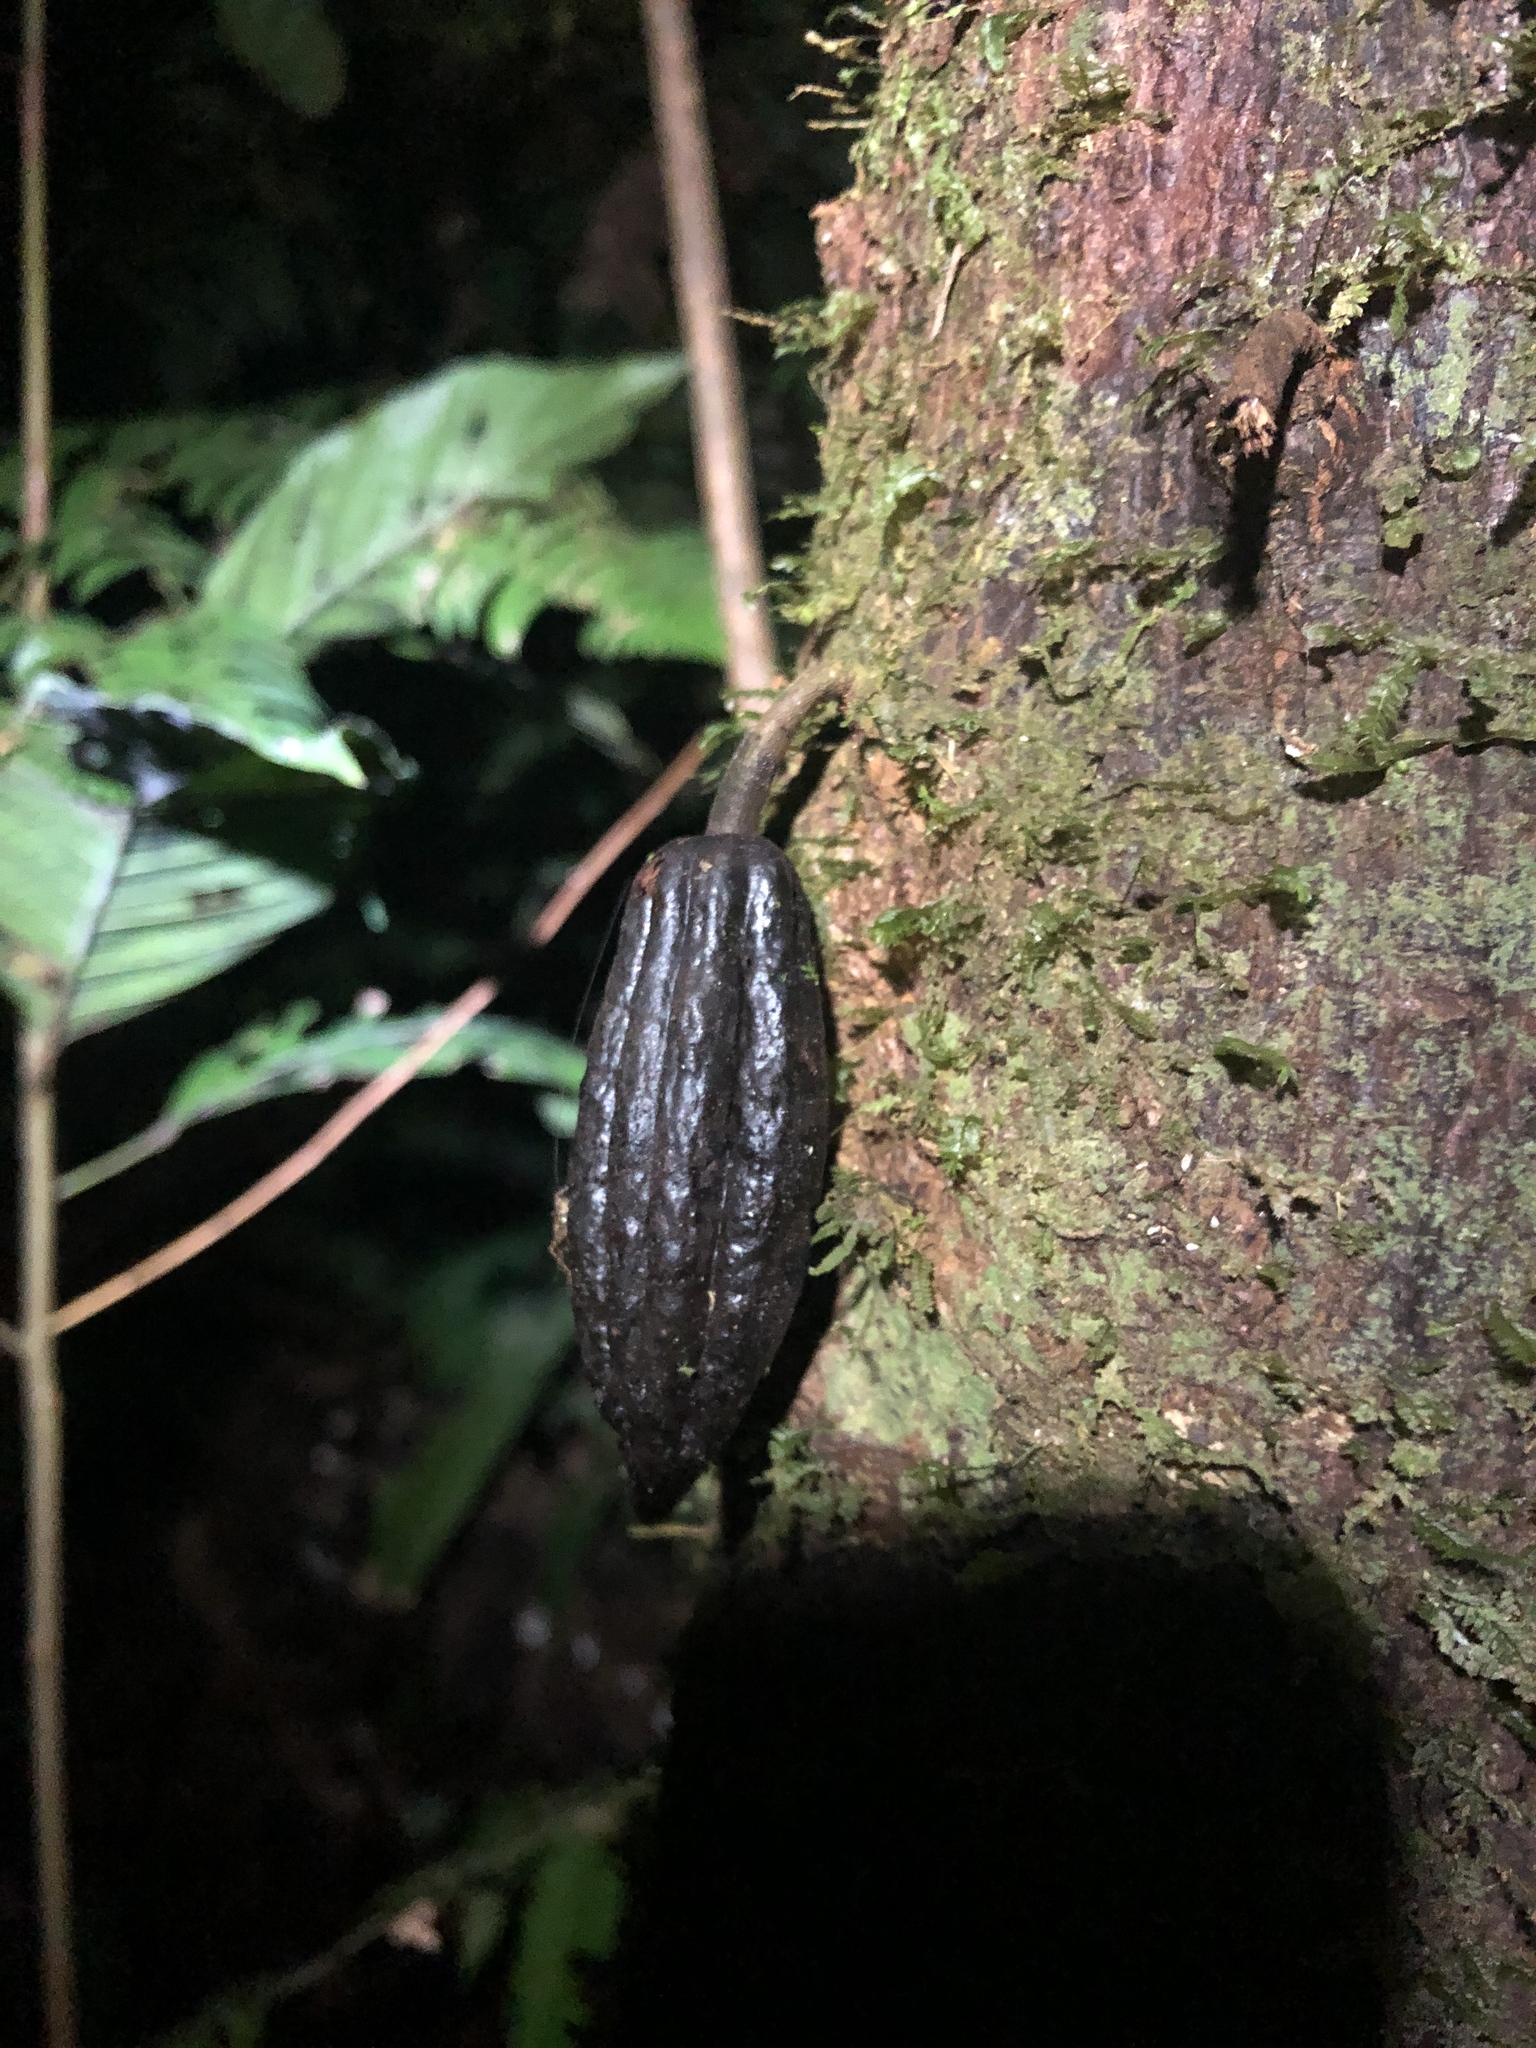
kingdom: Plantae
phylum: Tracheophyta
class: Magnoliopsida
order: Malvales
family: Malvaceae
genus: Theobroma
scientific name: Theobroma cacao
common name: Cocoa
